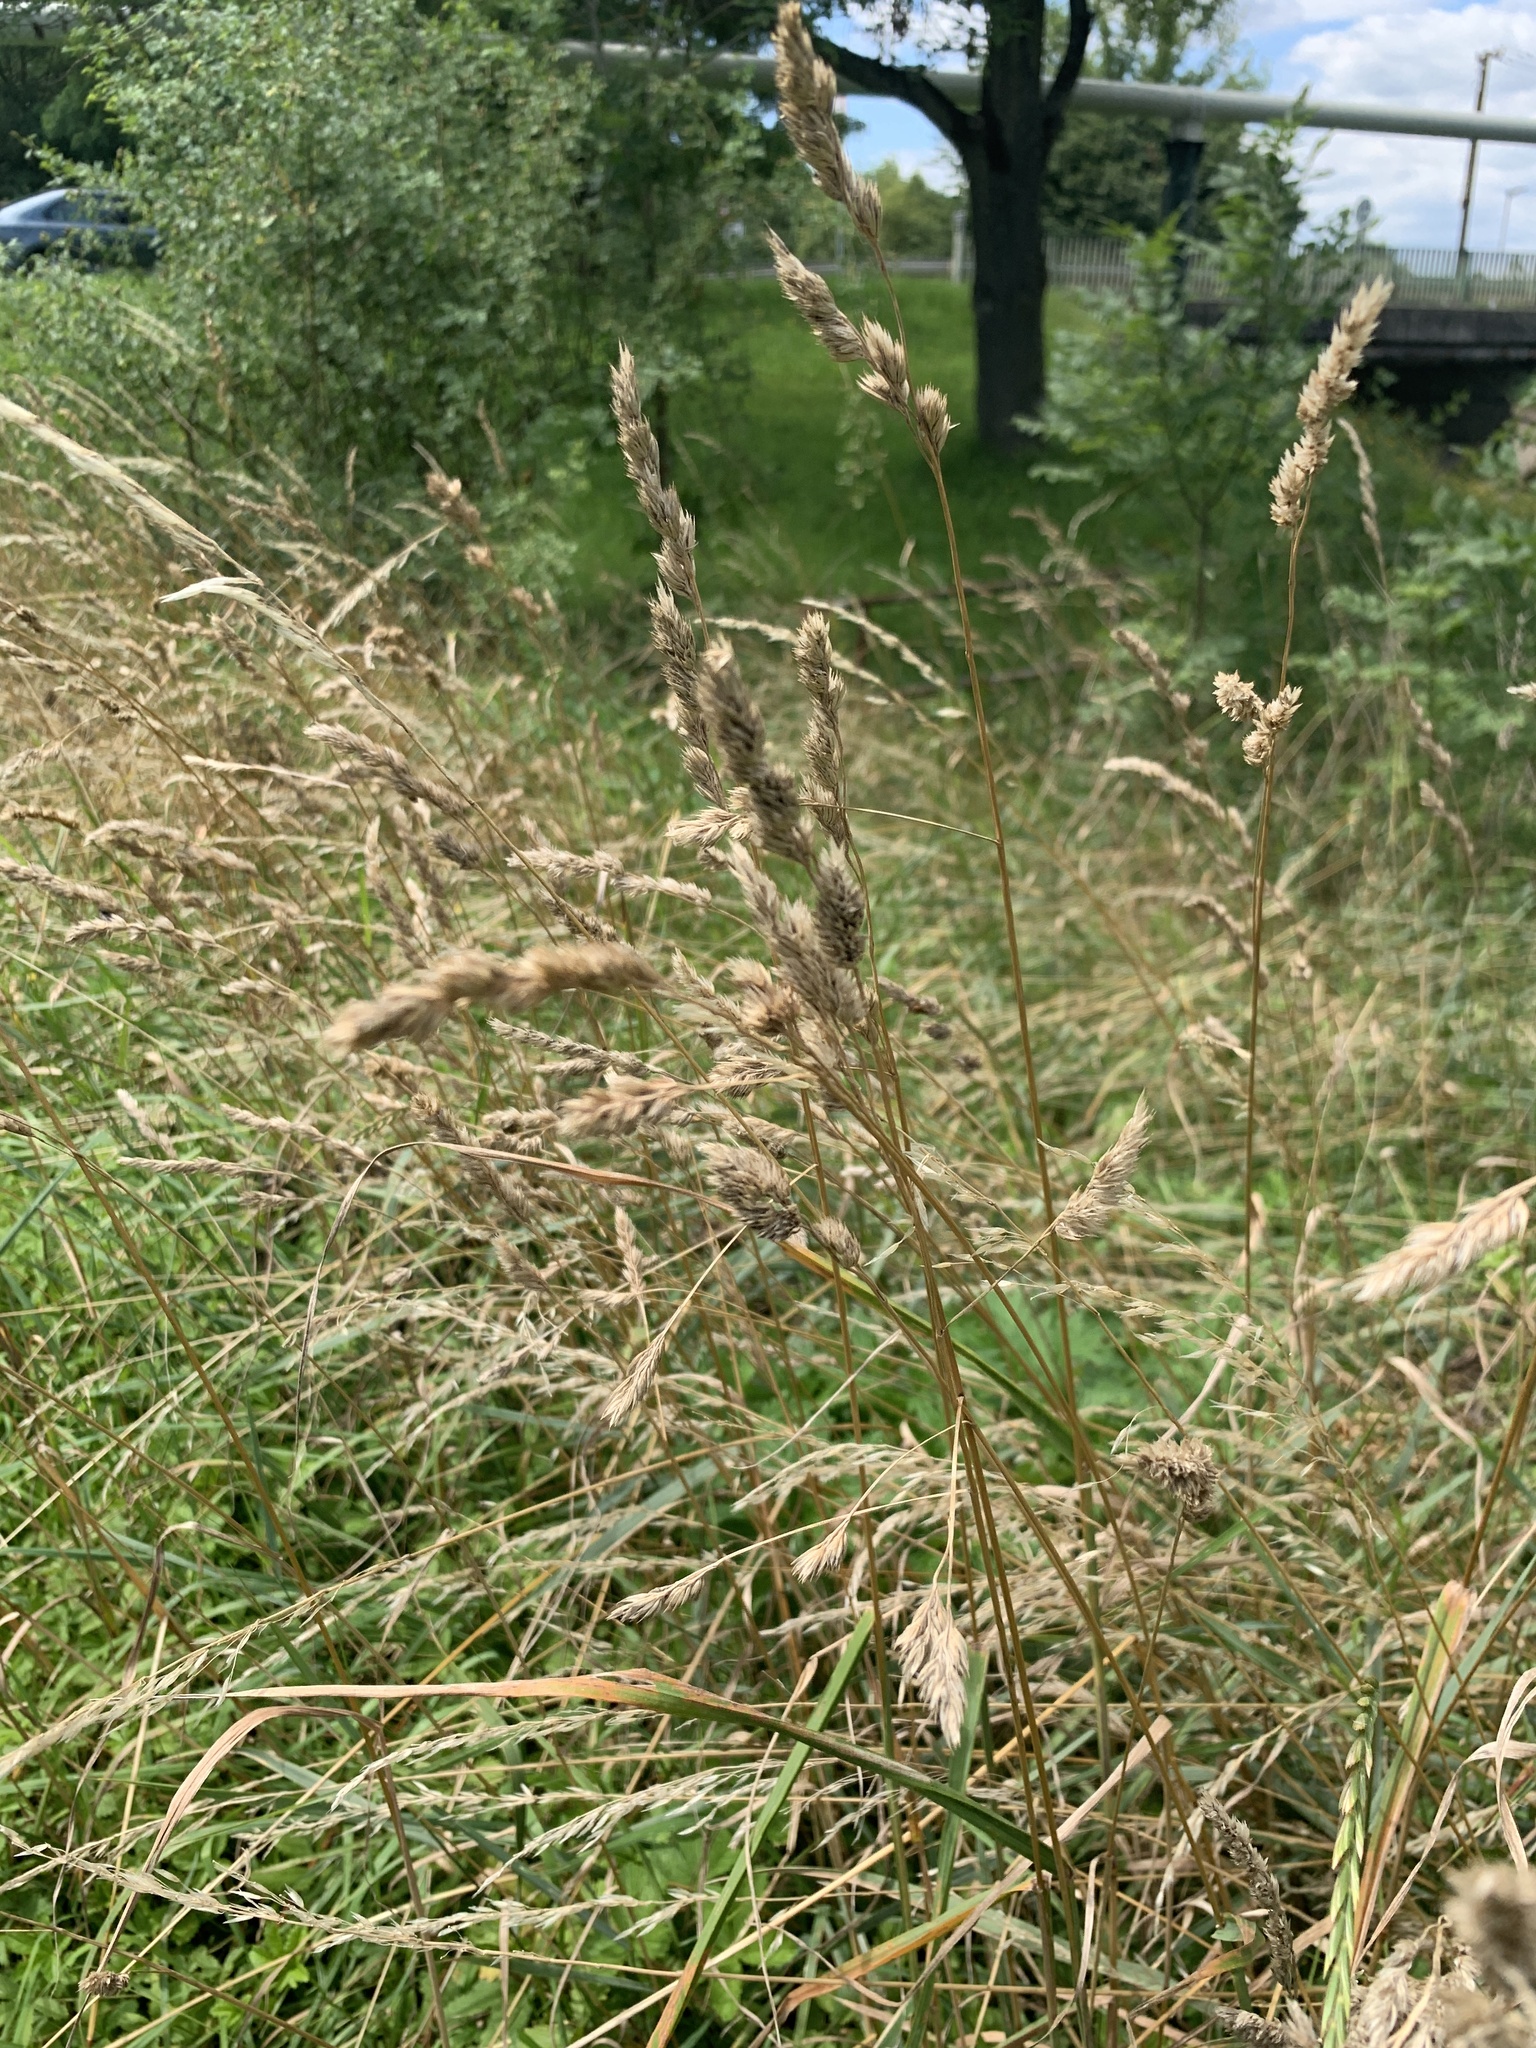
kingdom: Plantae
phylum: Tracheophyta
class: Liliopsida
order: Poales
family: Poaceae
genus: Dactylis
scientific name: Dactylis glomerata
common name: Orchardgrass
